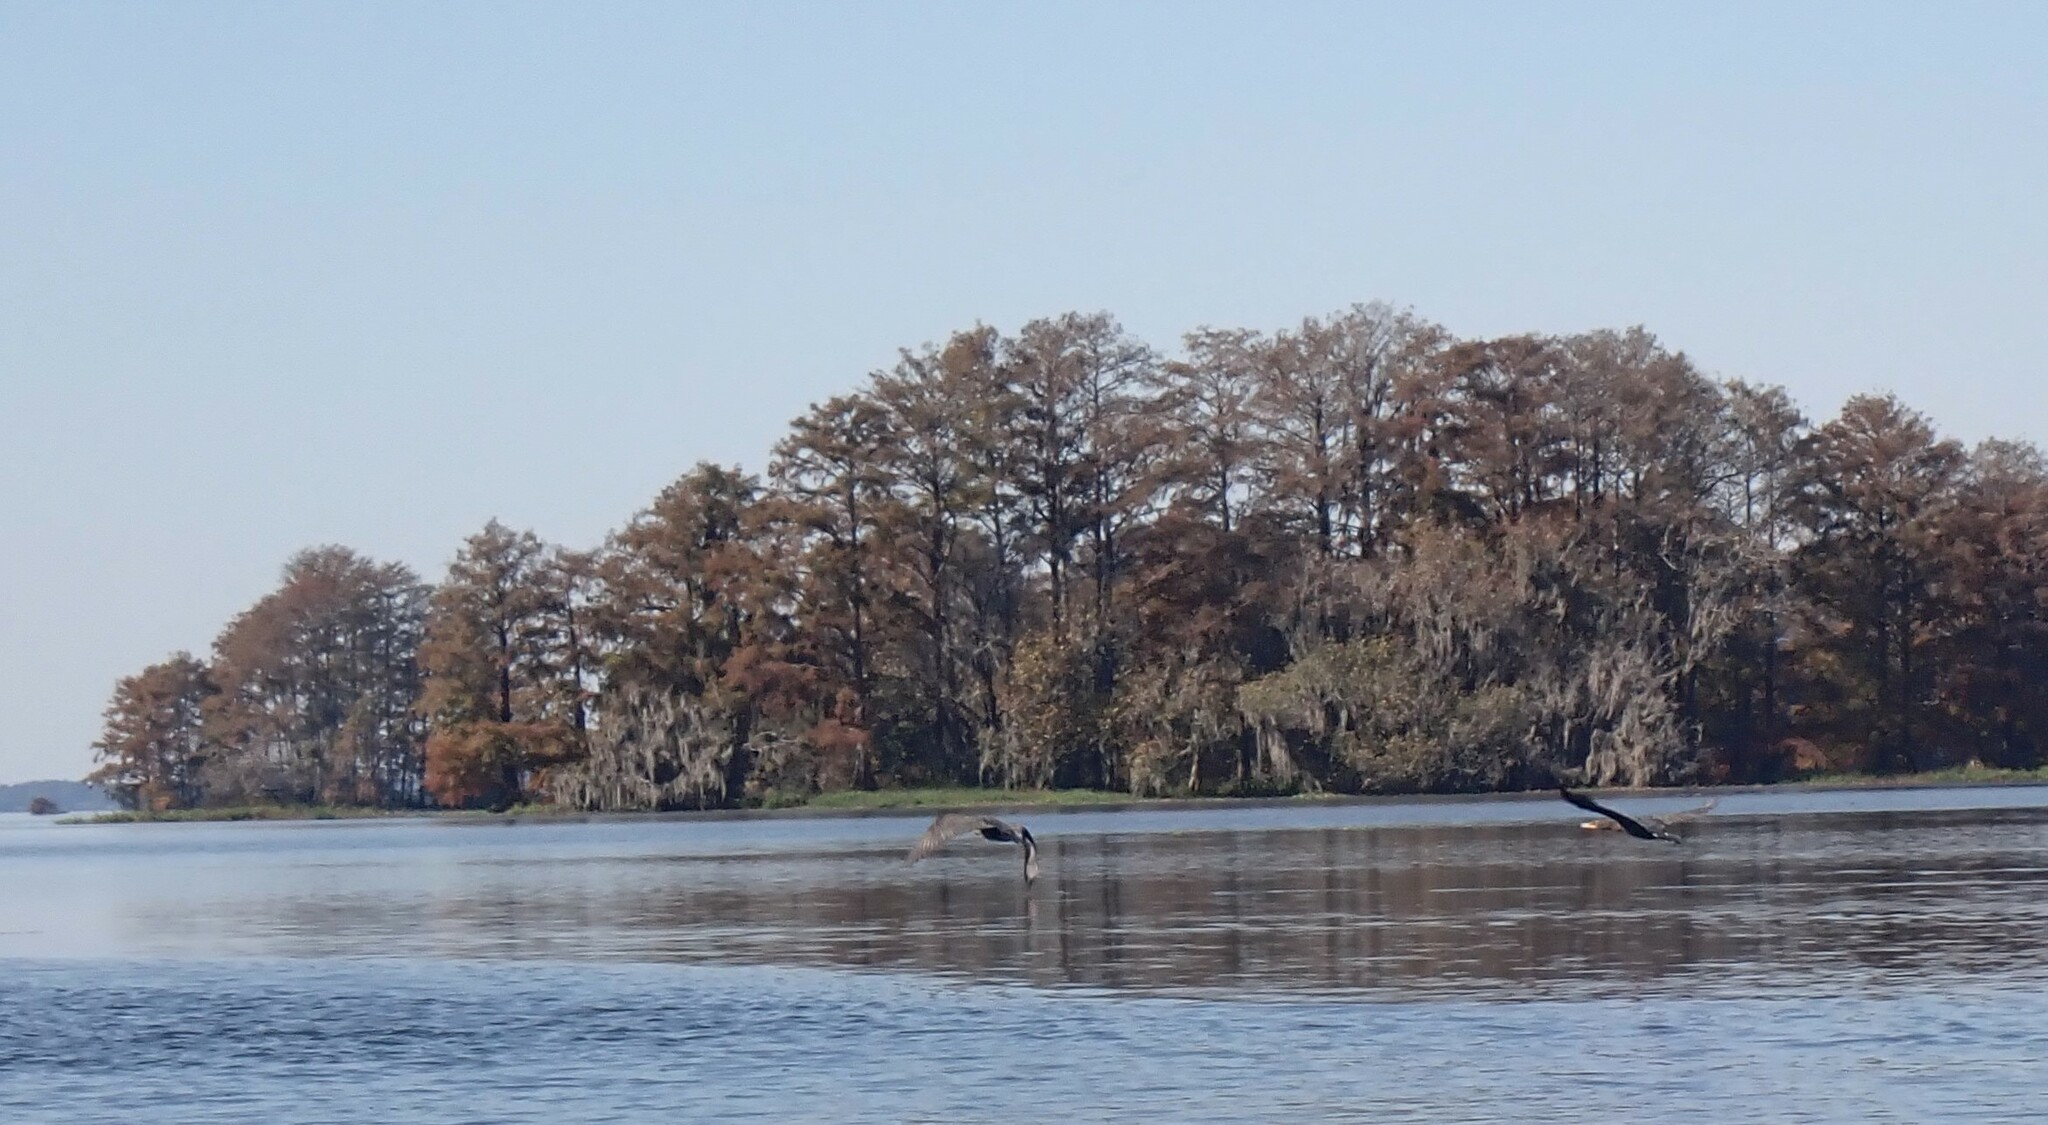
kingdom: Animalia
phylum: Chordata
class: Aves
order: Suliformes
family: Phalacrocoracidae
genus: Phalacrocorax
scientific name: Phalacrocorax auritus
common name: Double-crested cormorant
